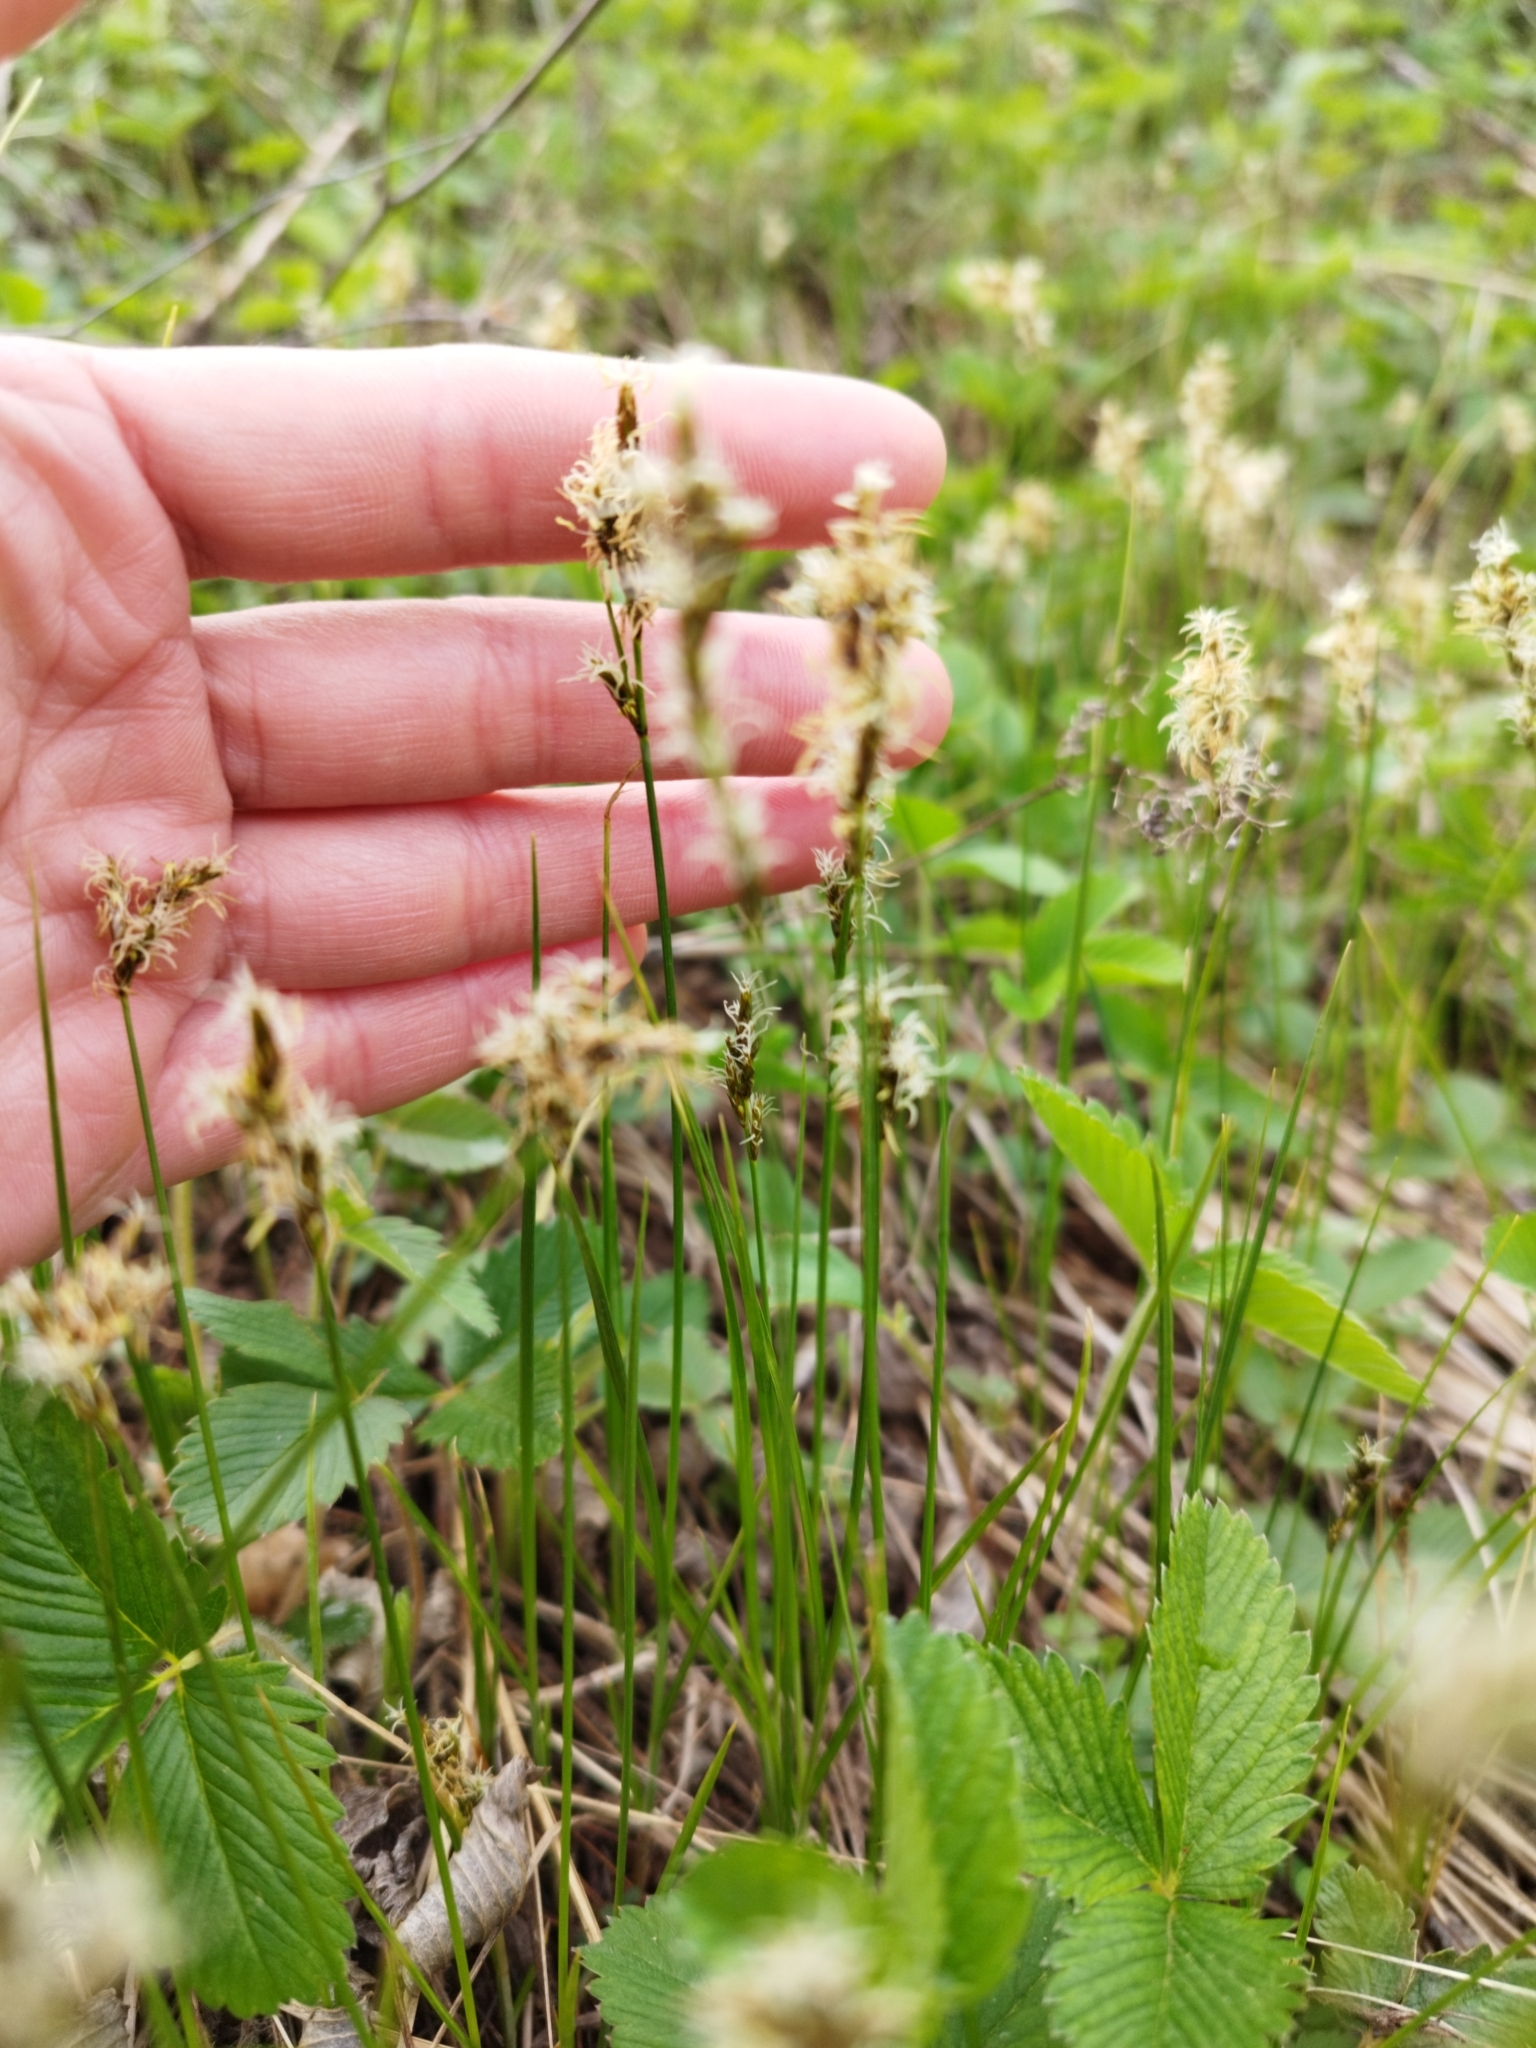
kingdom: Plantae
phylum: Tracheophyta
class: Liliopsida
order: Poales
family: Cyperaceae
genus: Carex
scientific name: Carex praecox
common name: Early sedge
